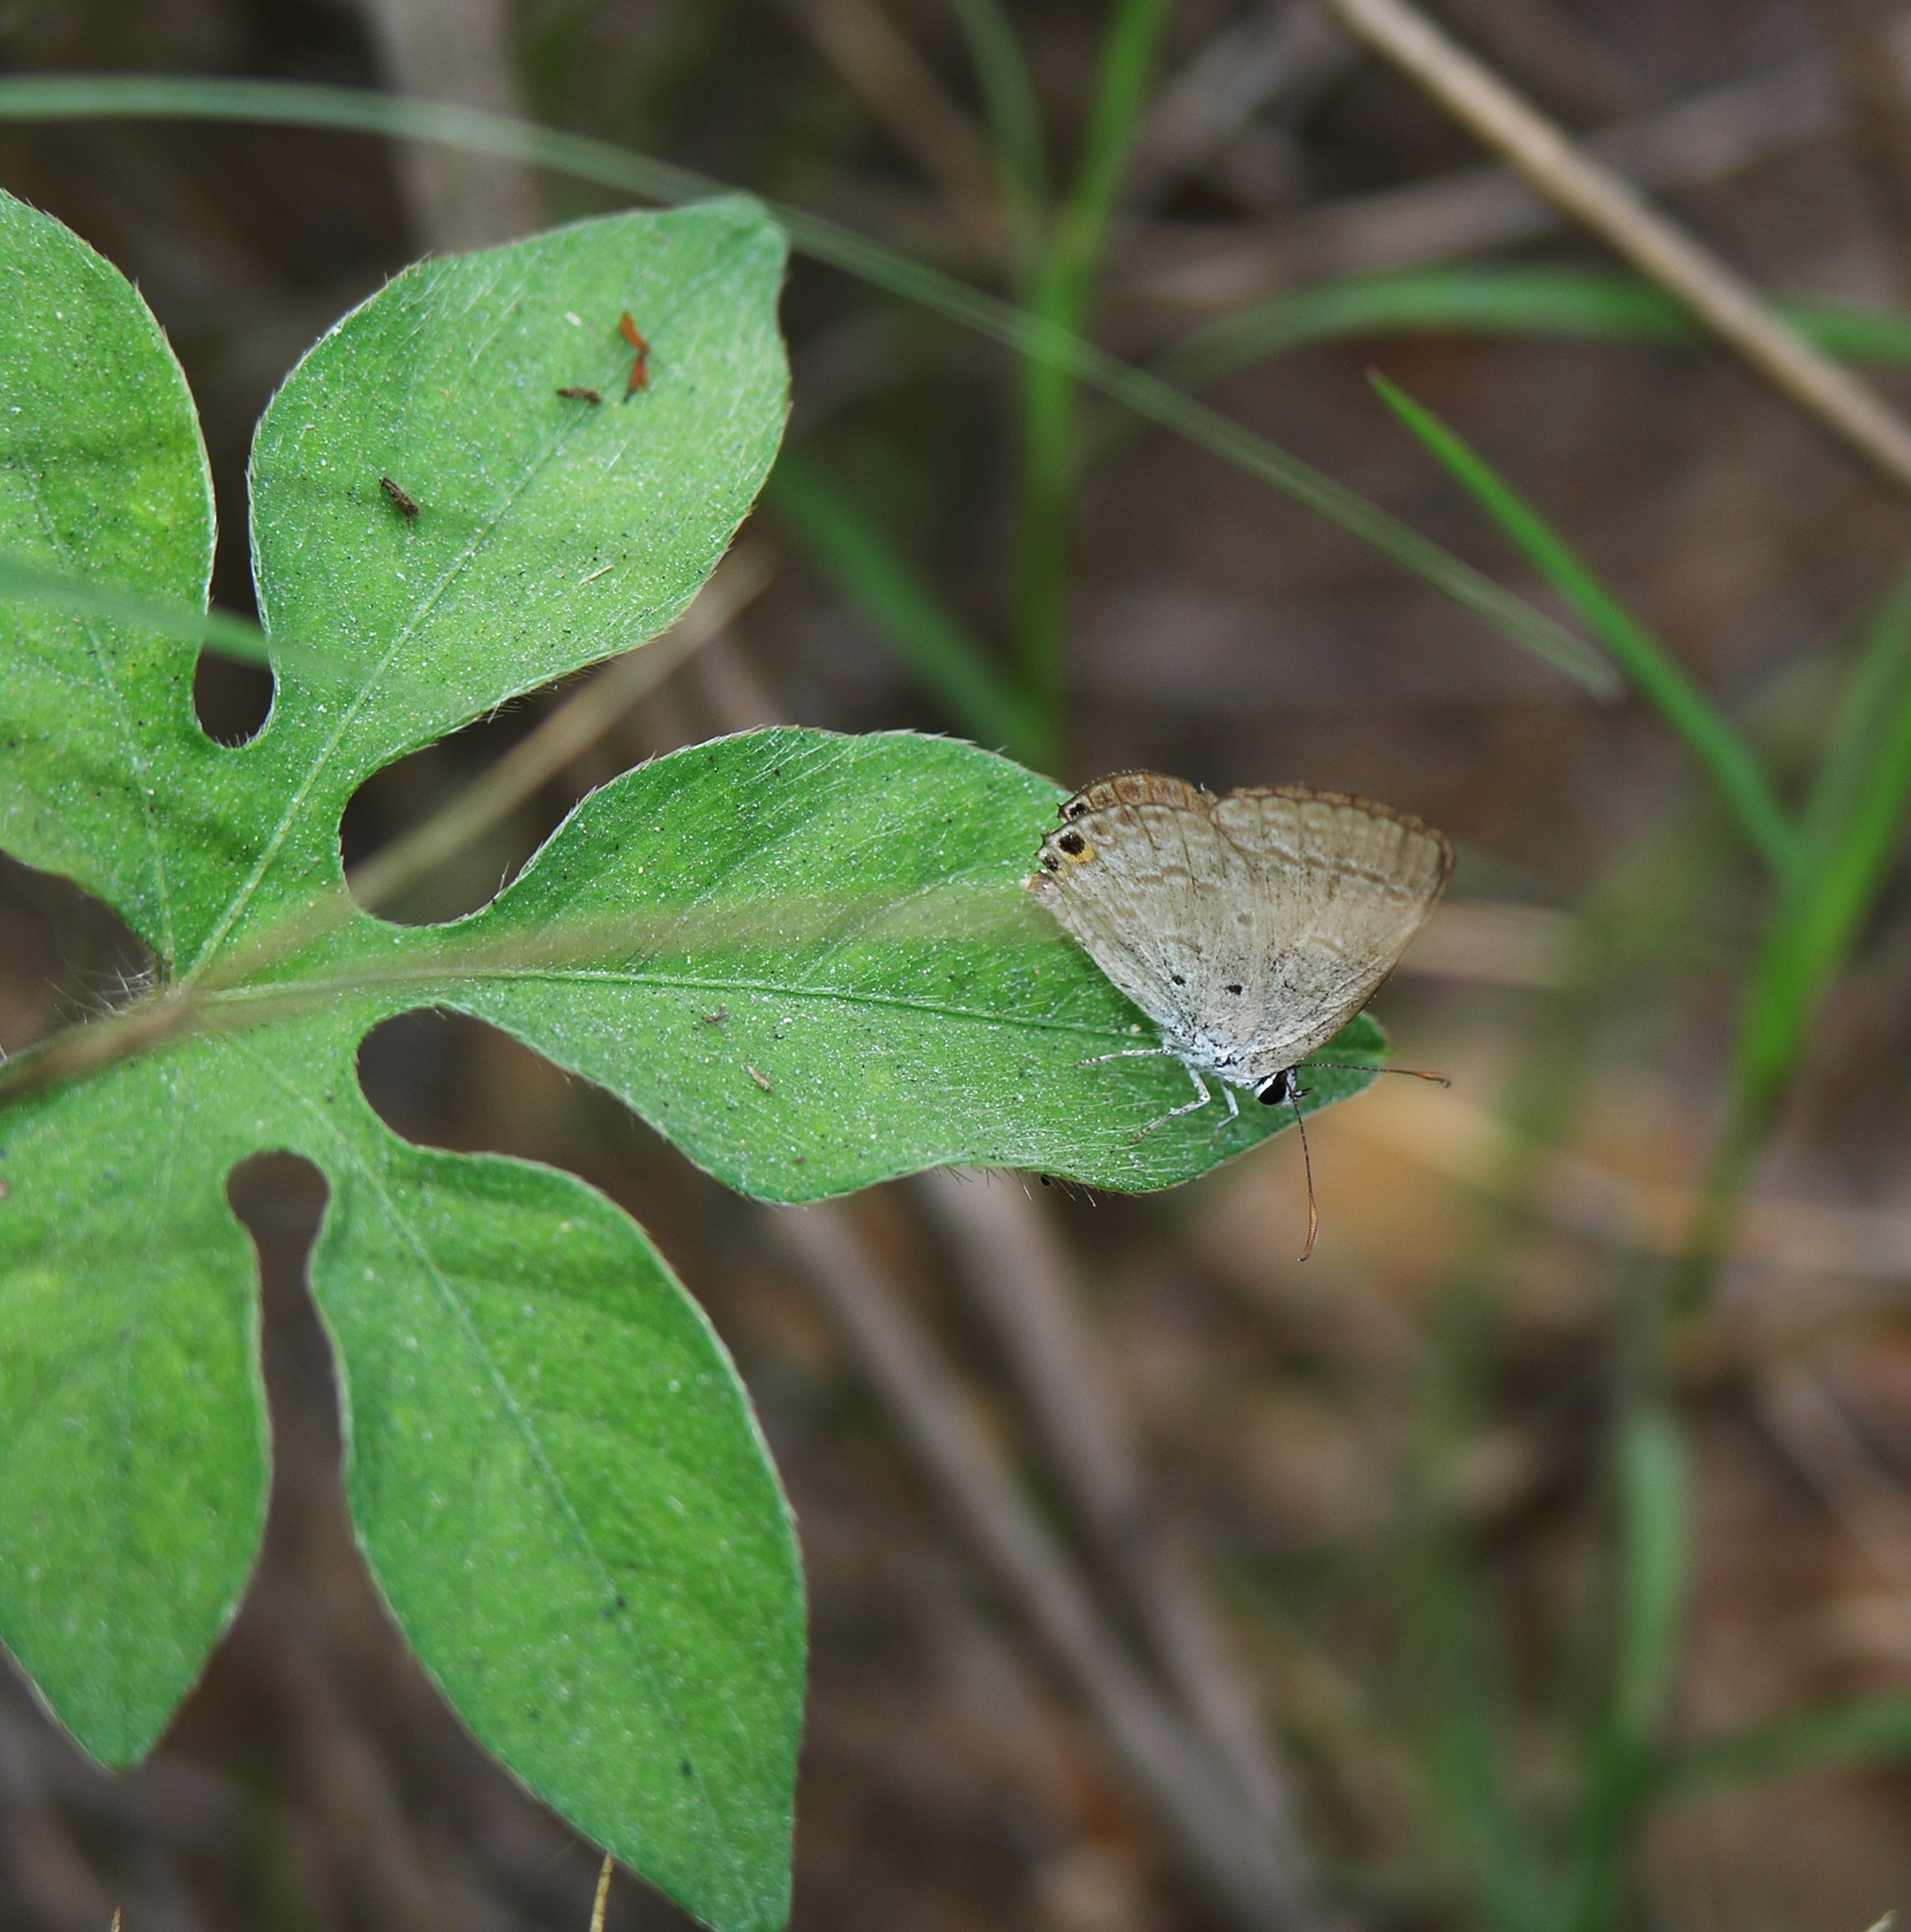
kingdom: Animalia
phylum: Arthropoda
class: Insecta
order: Lepidoptera
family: Lycaenidae
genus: Euchrysops
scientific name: Euchrysops cnejus
